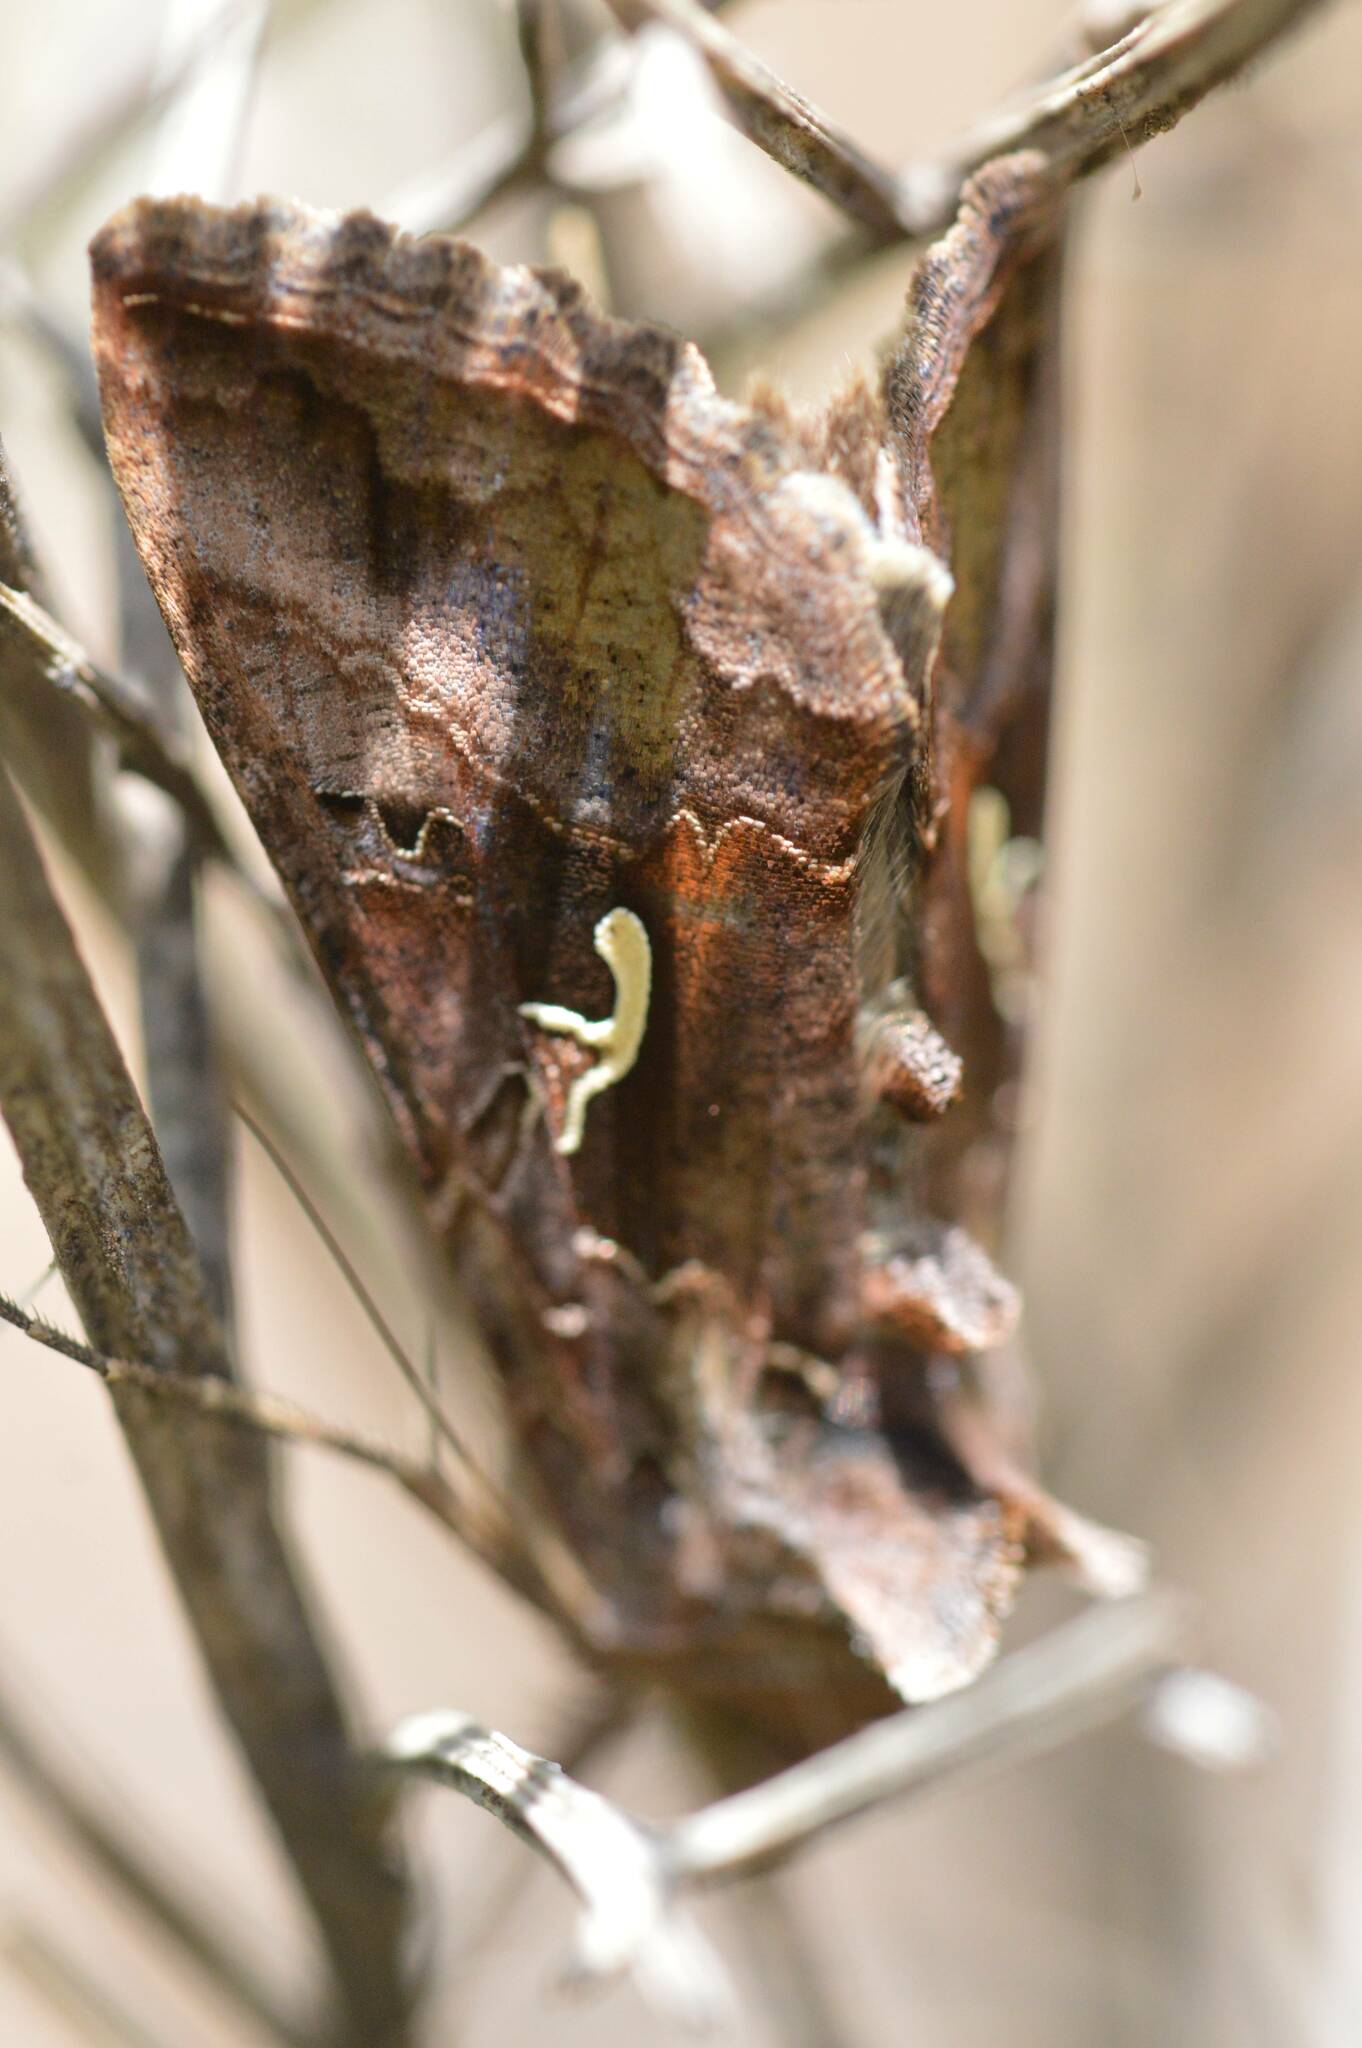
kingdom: Animalia
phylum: Arthropoda
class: Insecta
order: Lepidoptera
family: Noctuidae
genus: Autographa
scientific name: Autographa gamma
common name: Silver y
